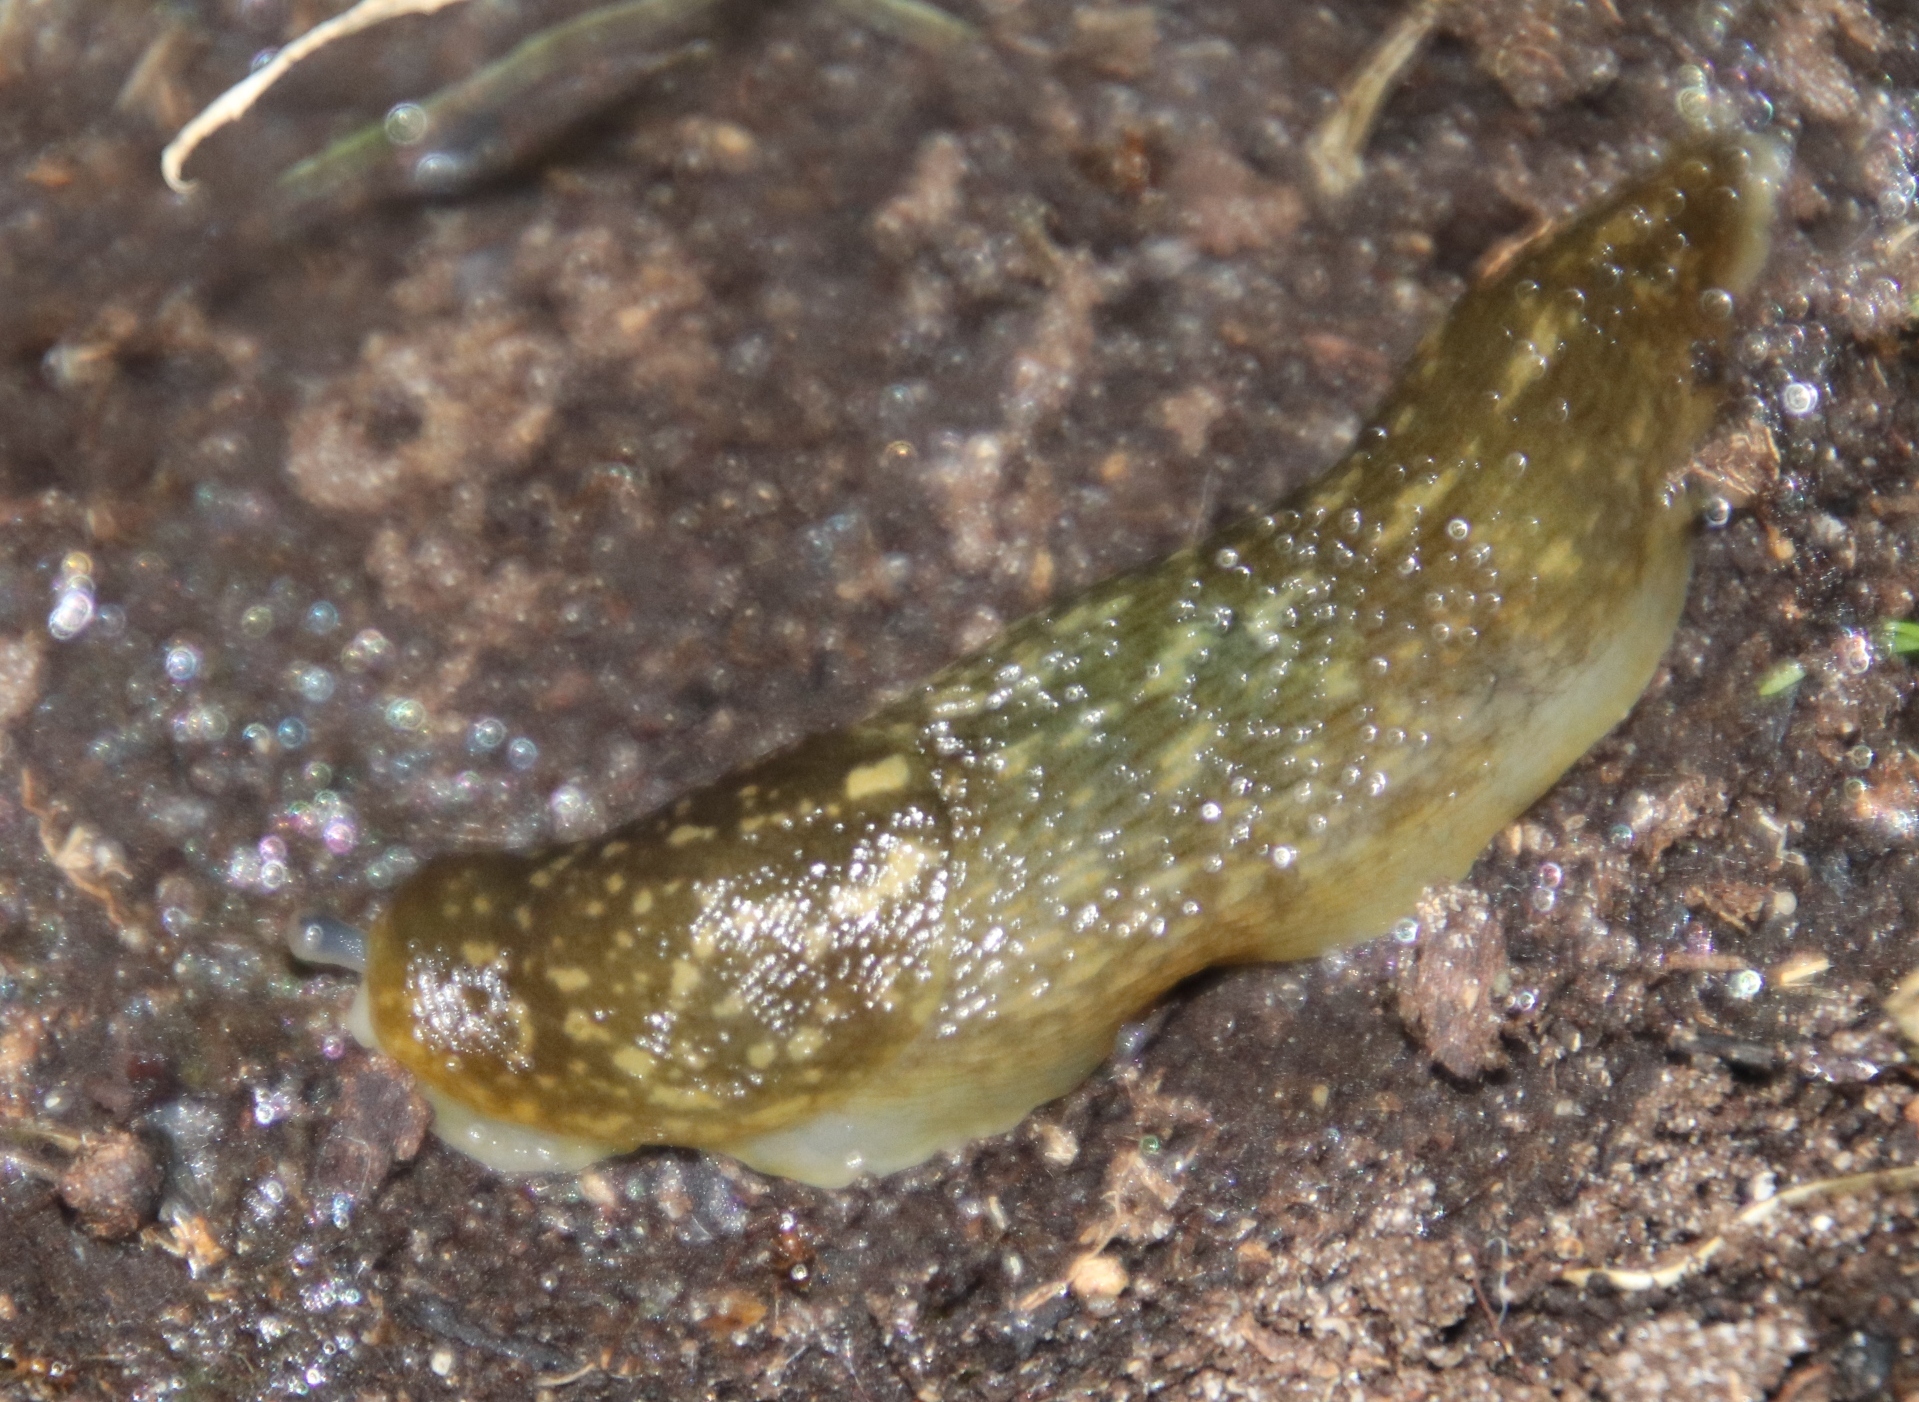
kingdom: Animalia
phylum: Mollusca
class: Gastropoda
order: Stylommatophora
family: Limacidae
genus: Limacus
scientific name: Limacus flavus
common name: Yellow gardenslug
